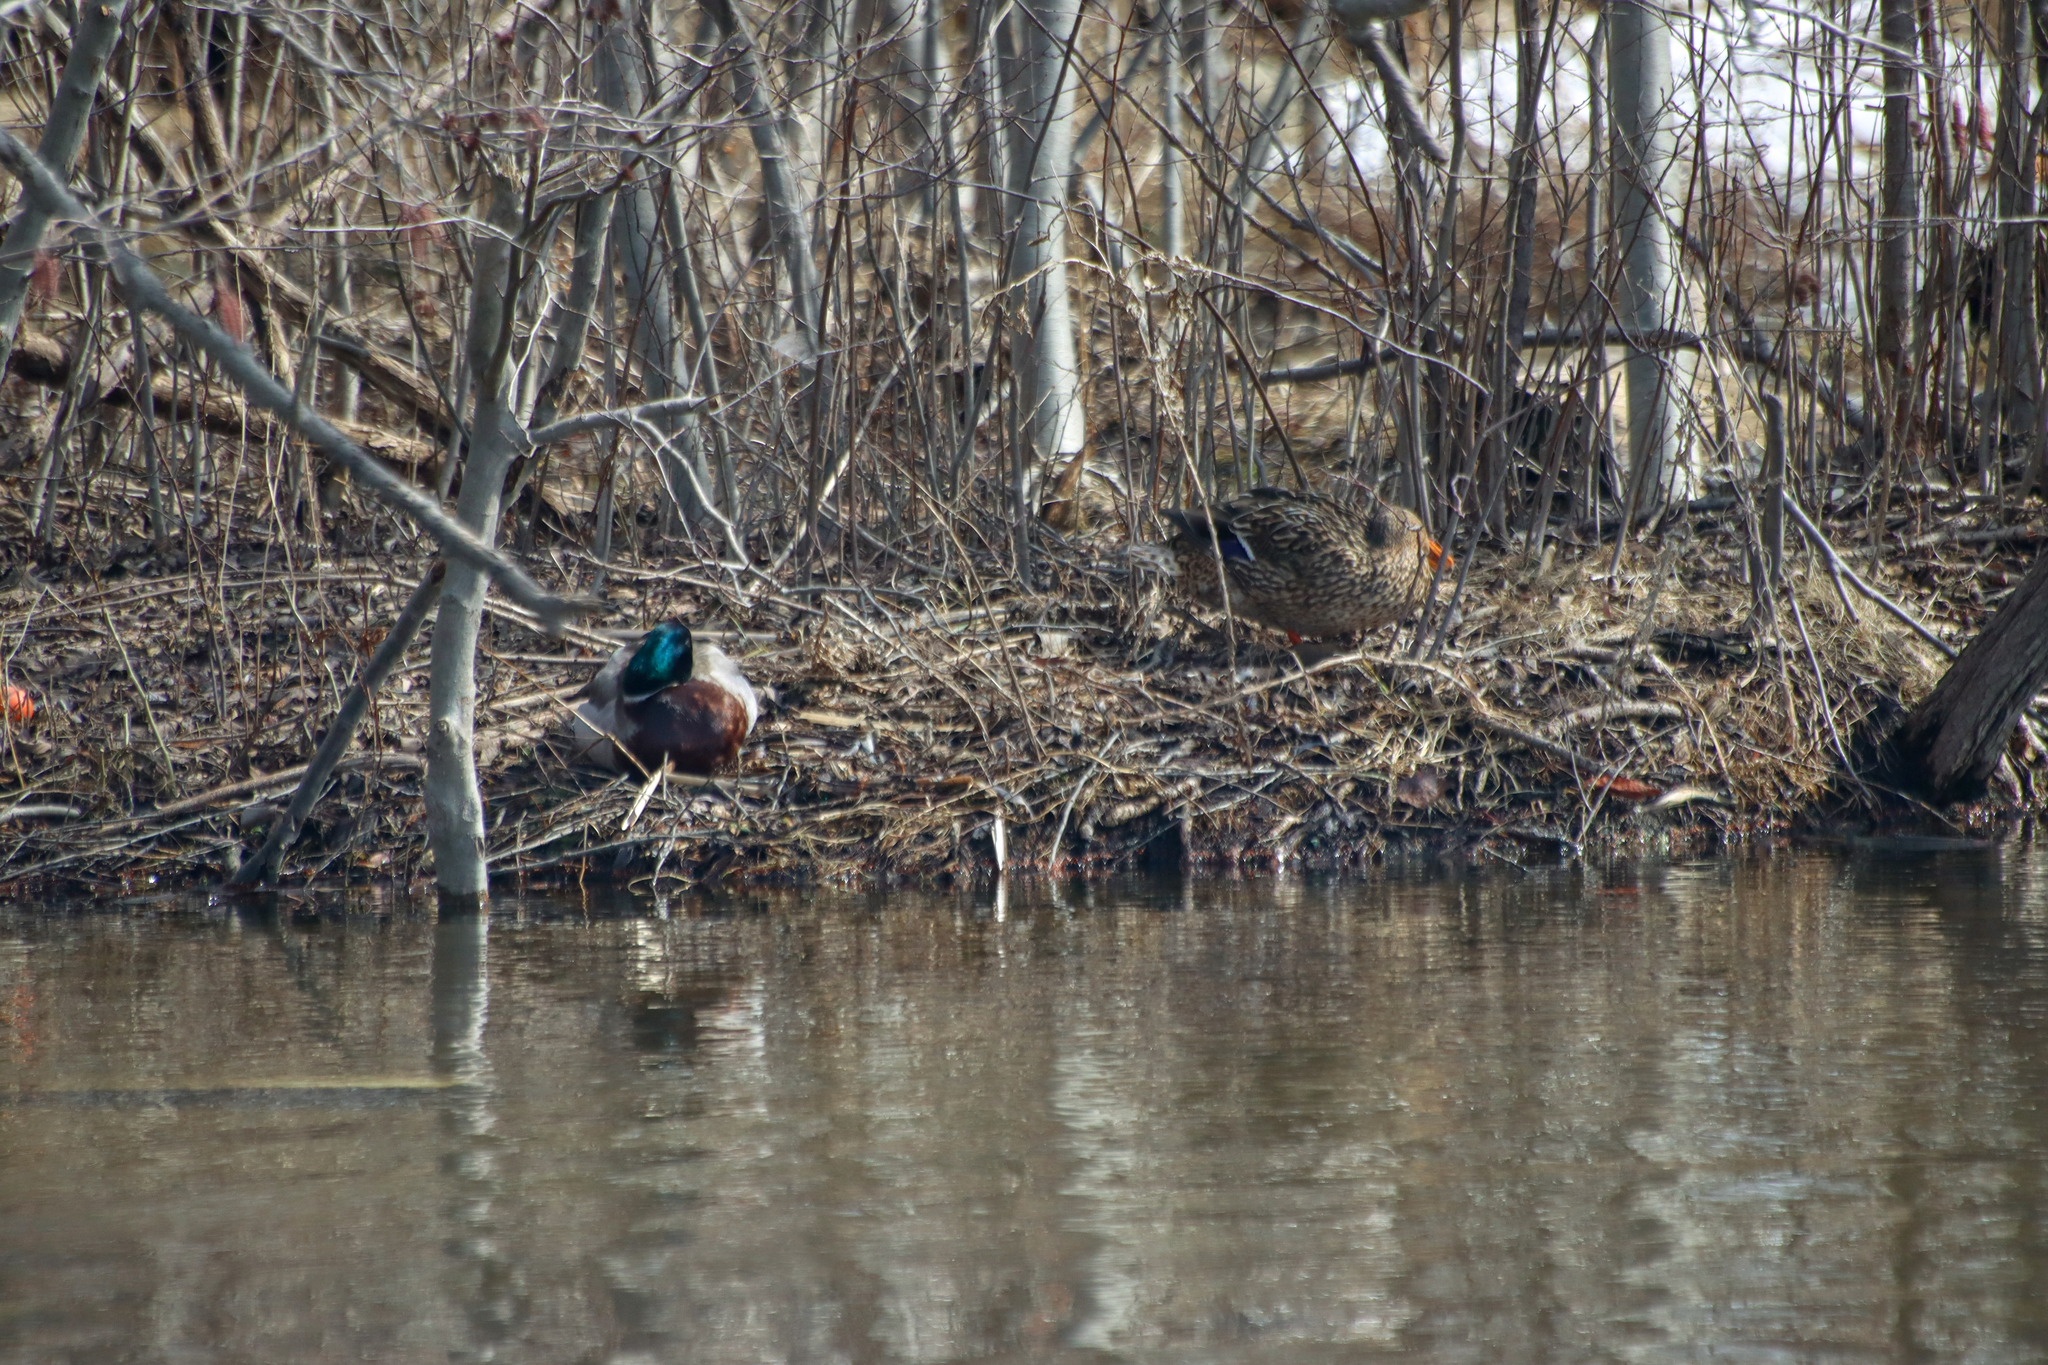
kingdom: Animalia
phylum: Chordata
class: Aves
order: Anseriformes
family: Anatidae
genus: Anas
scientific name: Anas platyrhynchos
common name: Mallard
